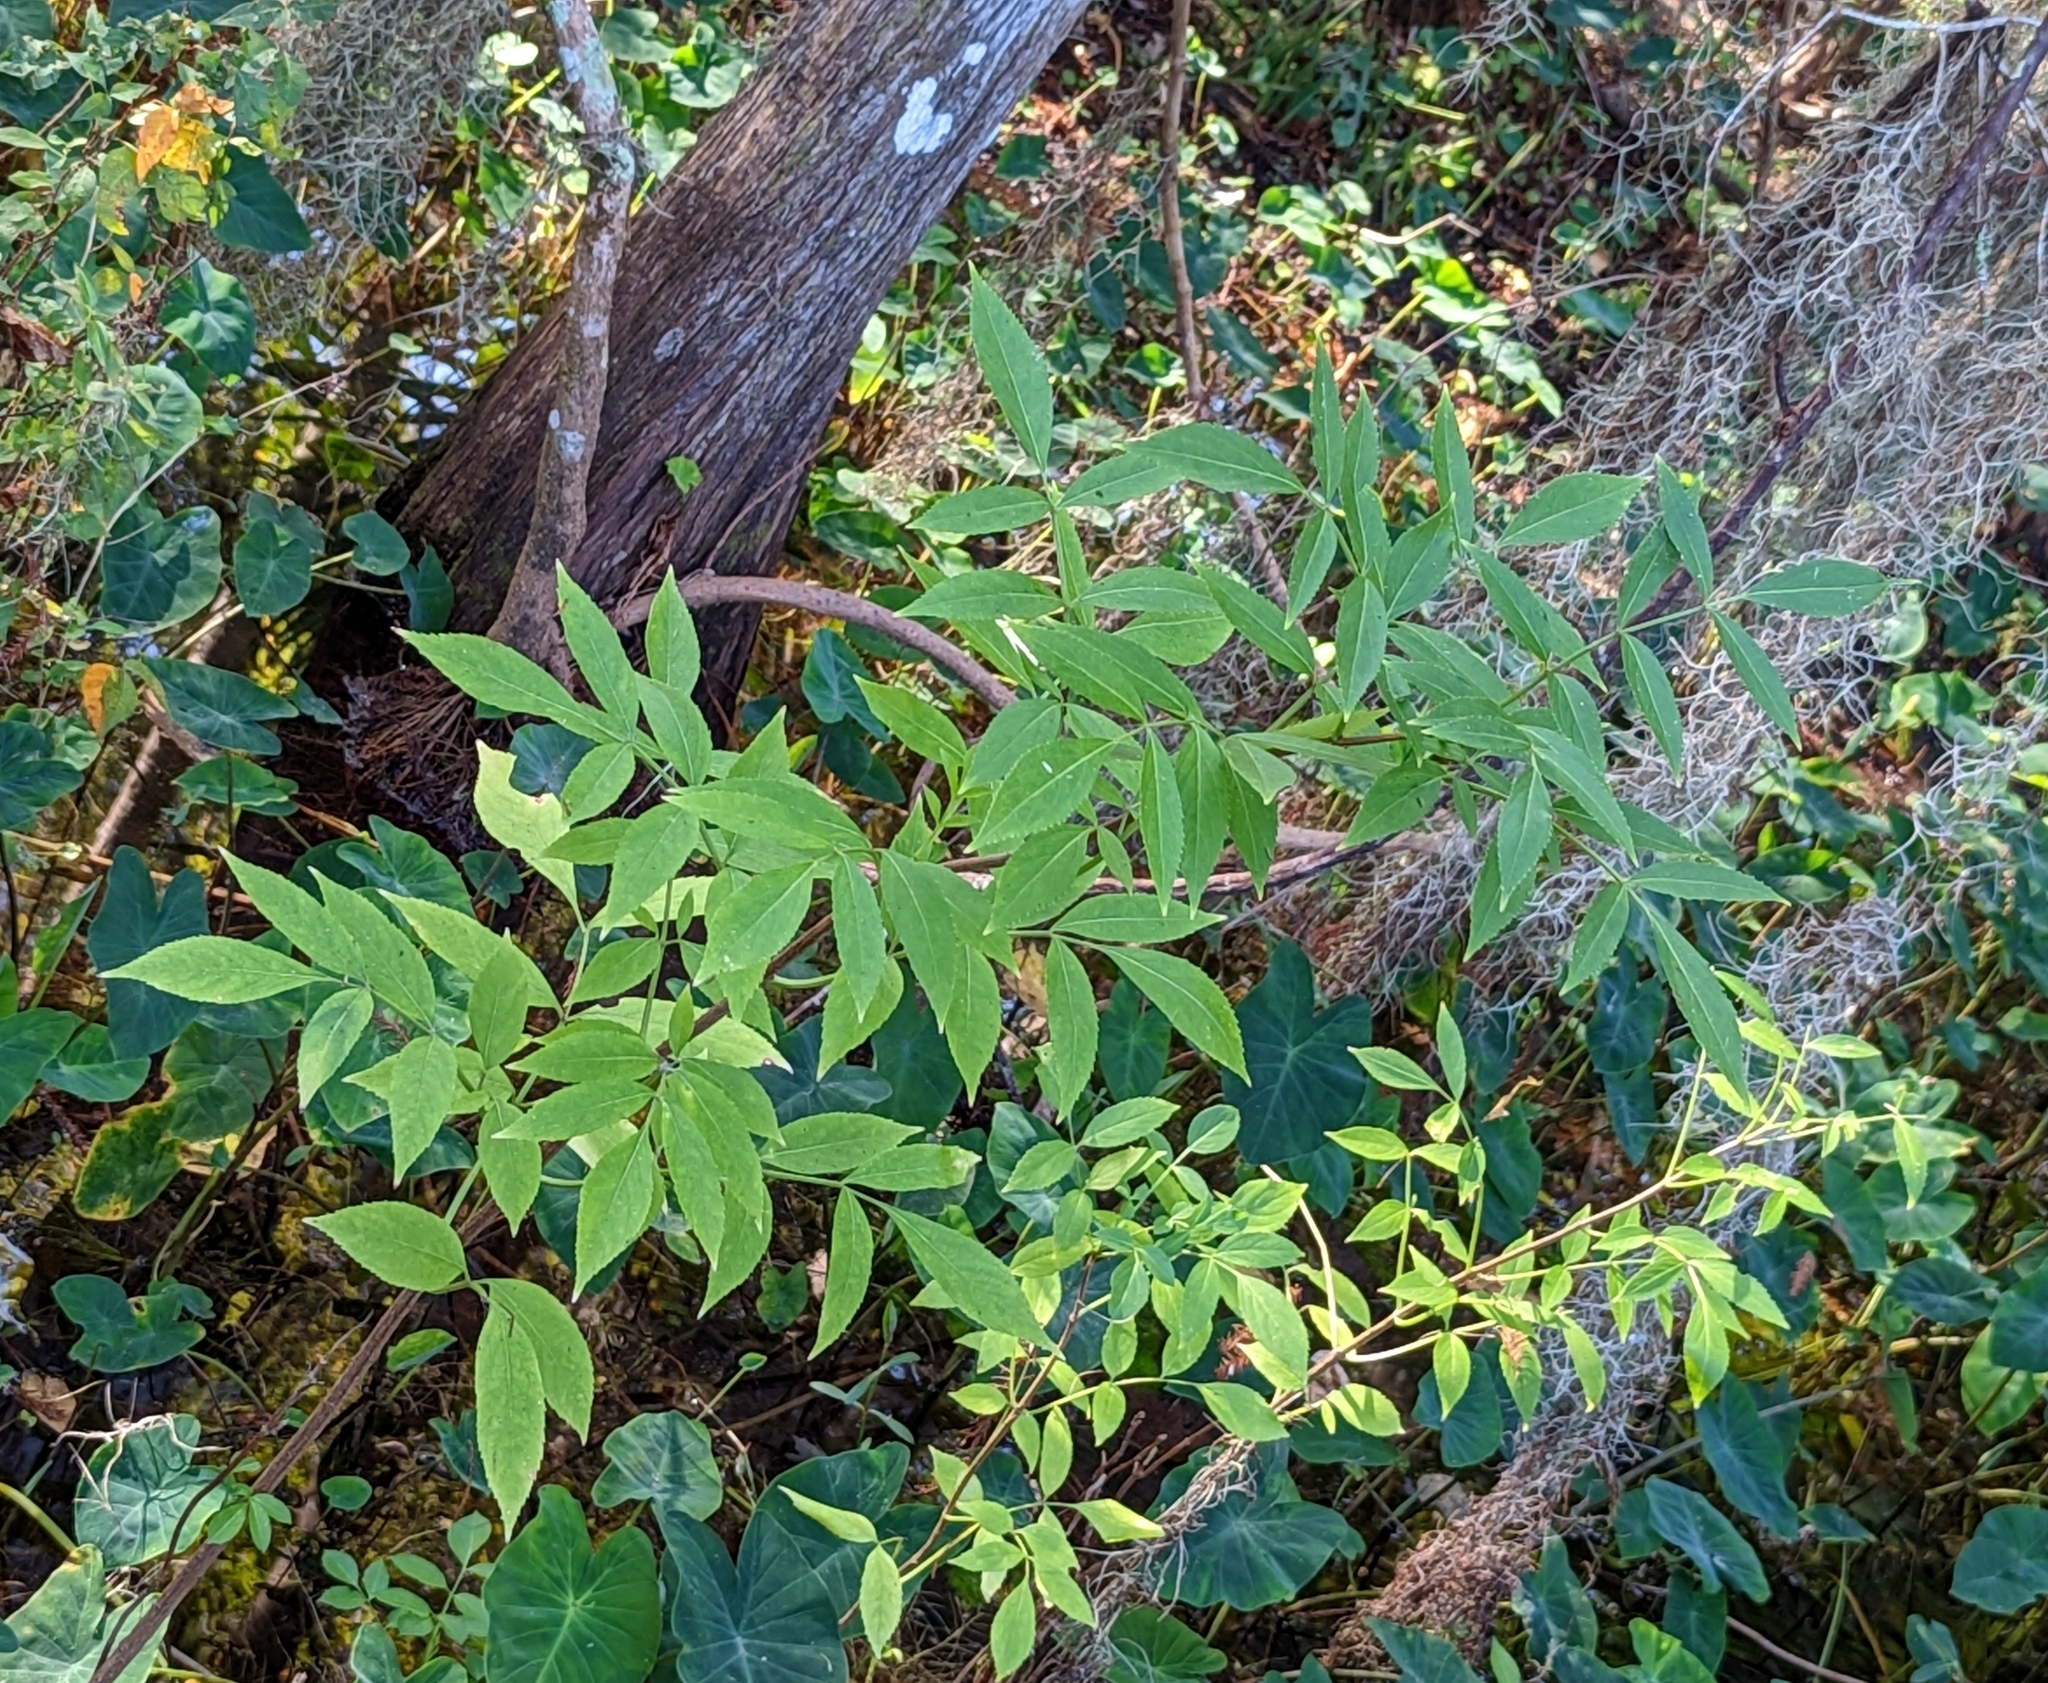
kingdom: Plantae
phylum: Tracheophyta
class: Magnoliopsida
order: Dipsacales
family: Viburnaceae
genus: Sambucus
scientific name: Sambucus canadensis
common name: American elder
